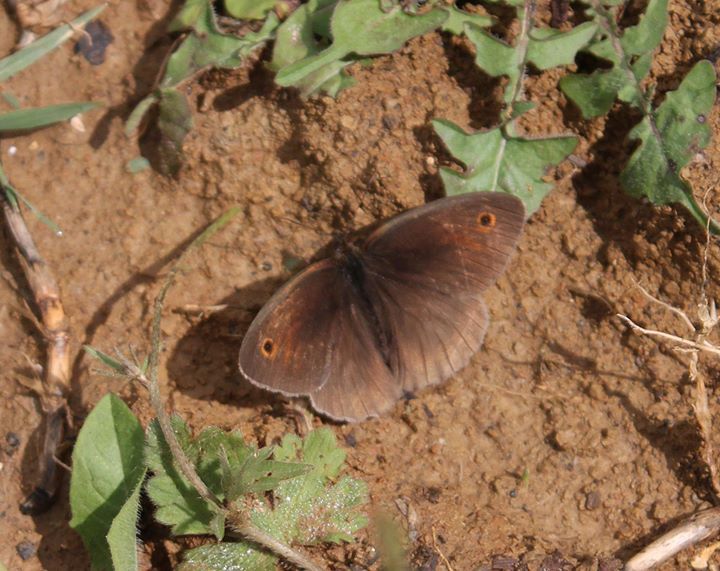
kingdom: Animalia
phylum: Arthropoda
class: Insecta
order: Lepidoptera
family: Nymphalidae
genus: Maniola
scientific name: Maniola jurtina
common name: Meadow brown
